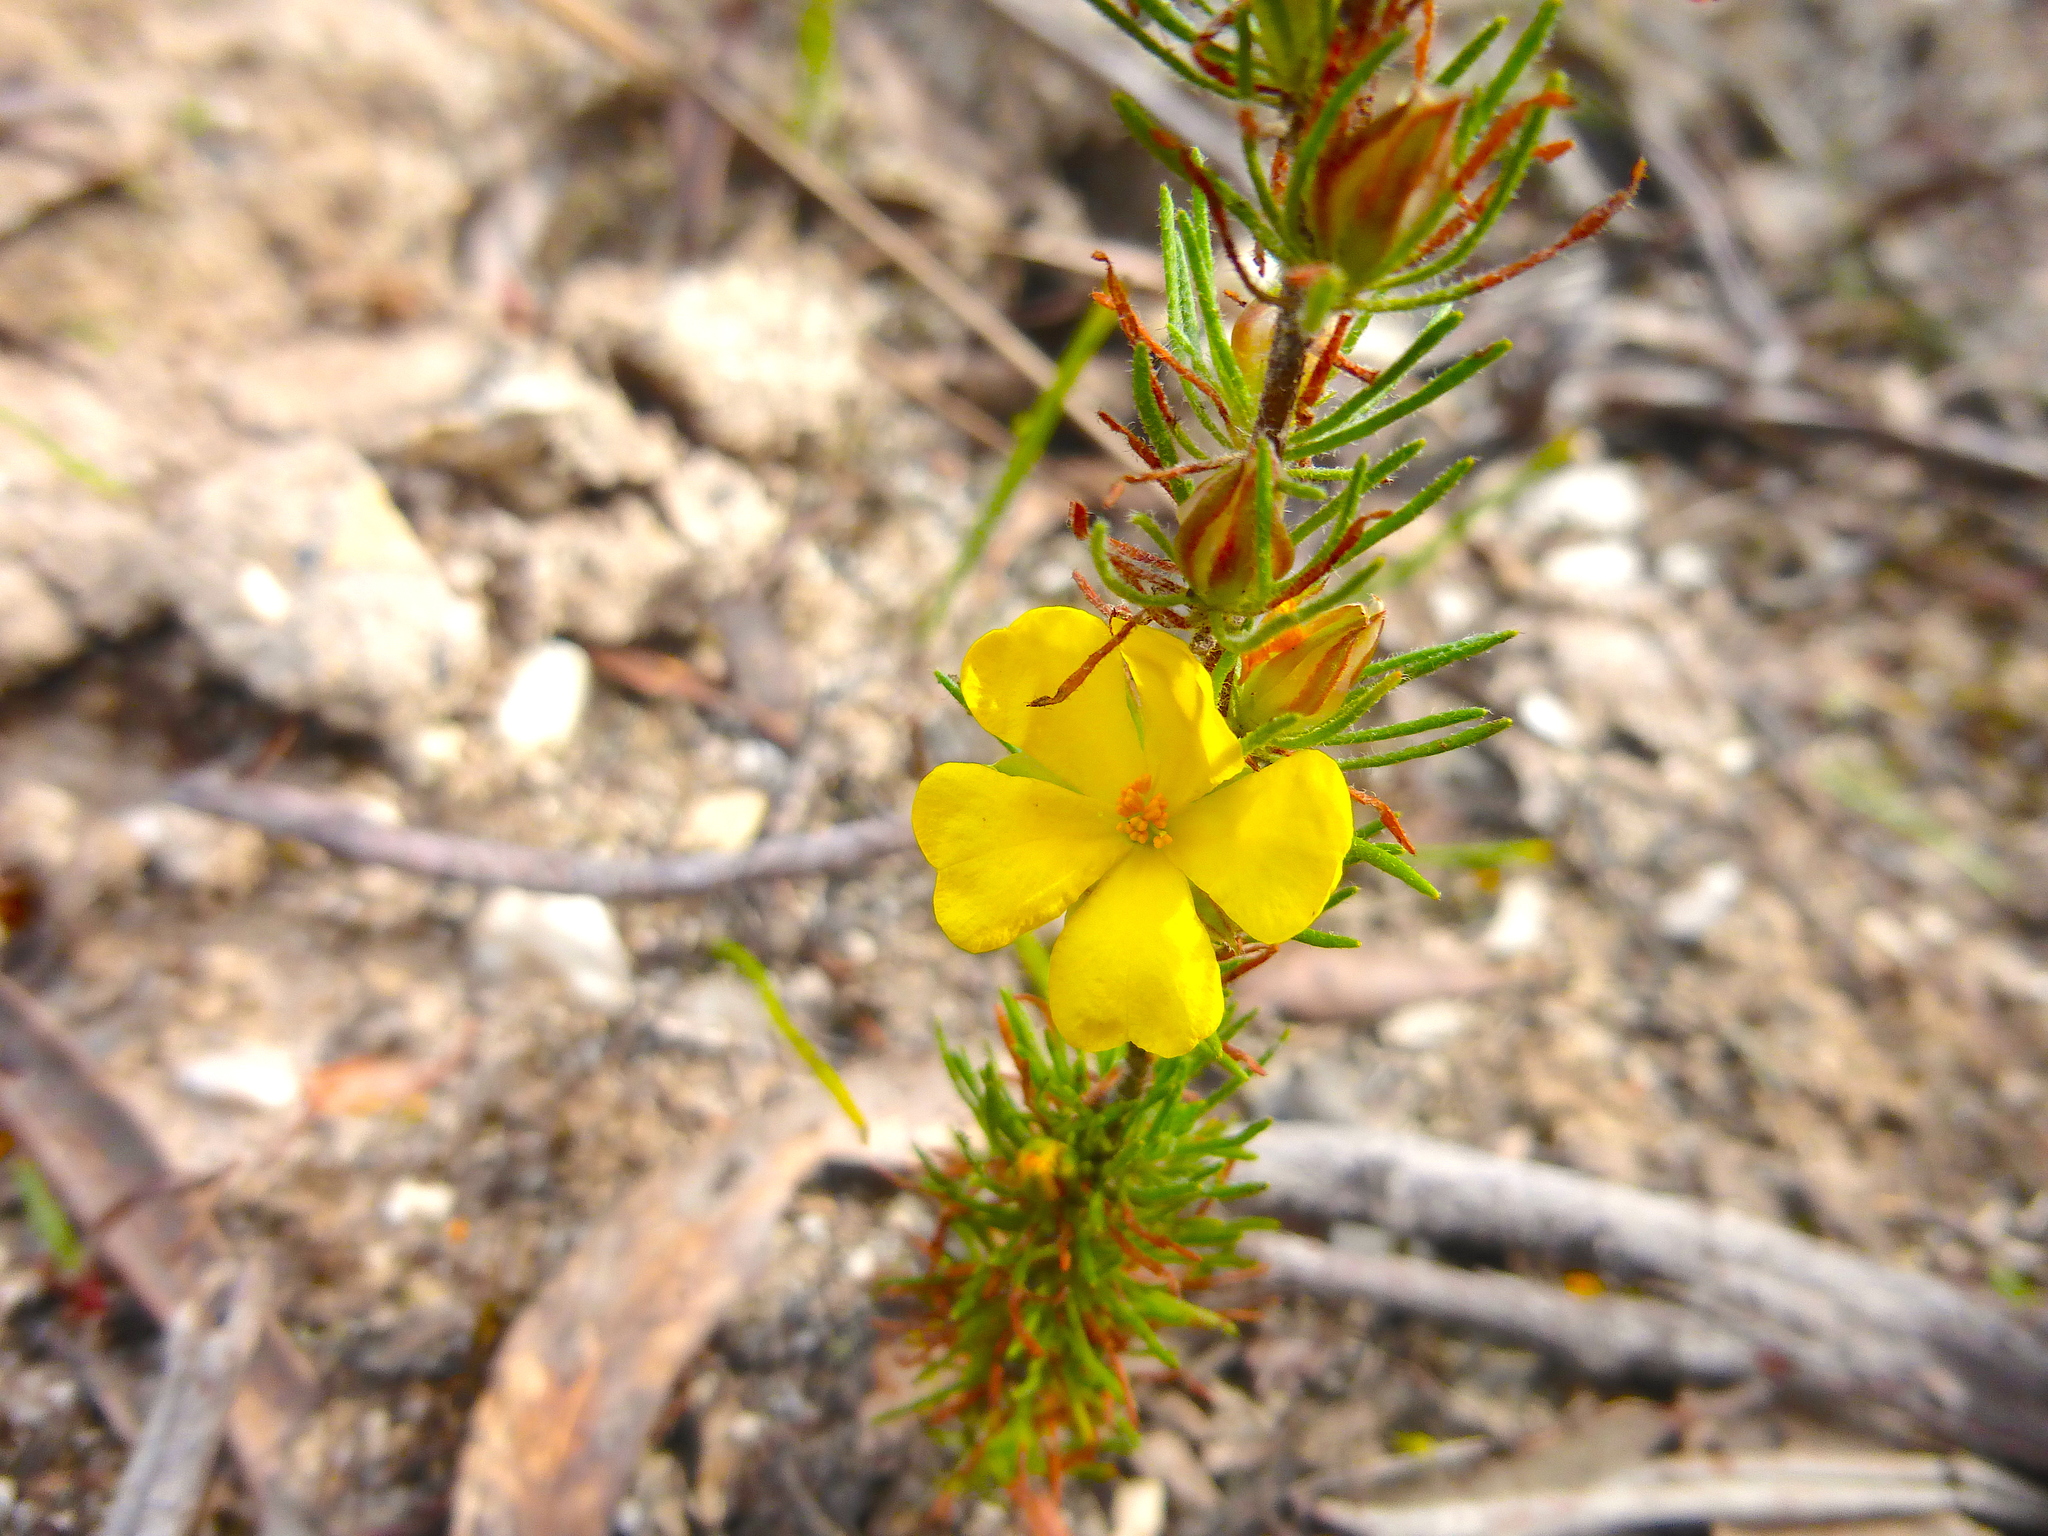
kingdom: Plantae
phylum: Tracheophyta
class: Magnoliopsida
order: Dilleniales
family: Dilleniaceae
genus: Hibbertia
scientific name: Hibbertia prostrata
